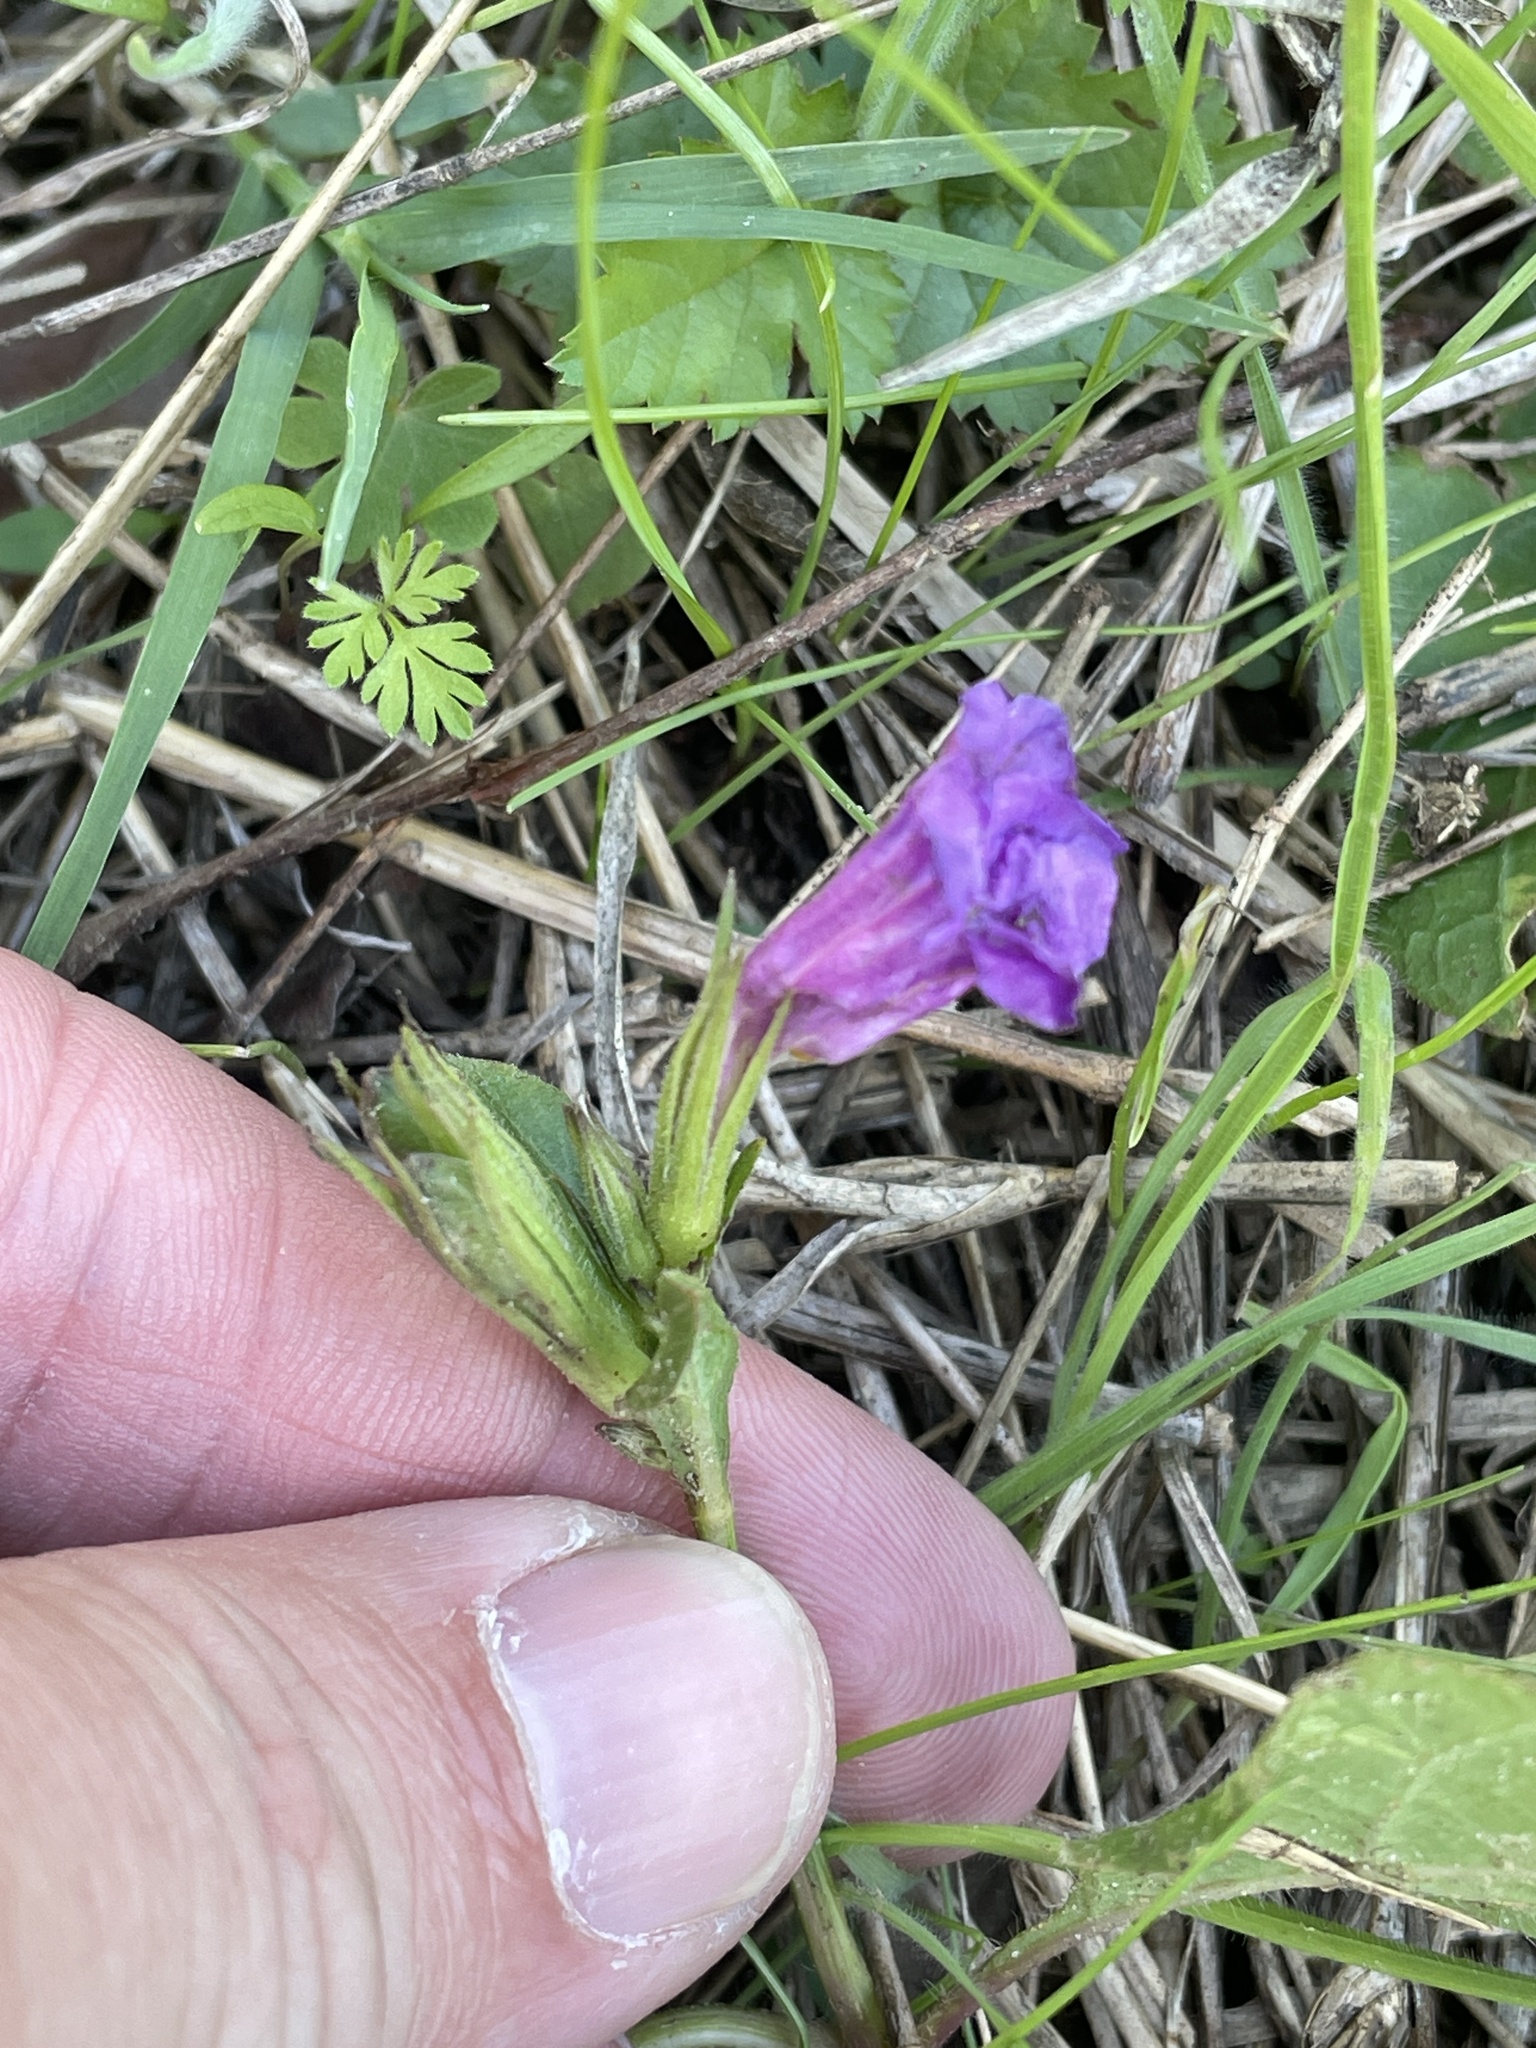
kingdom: Plantae
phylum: Tracheophyta
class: Magnoliopsida
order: Lamiales
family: Acanthaceae
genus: Ruellia
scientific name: Ruellia ciliatiflora
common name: Hairyflower wild petunia
